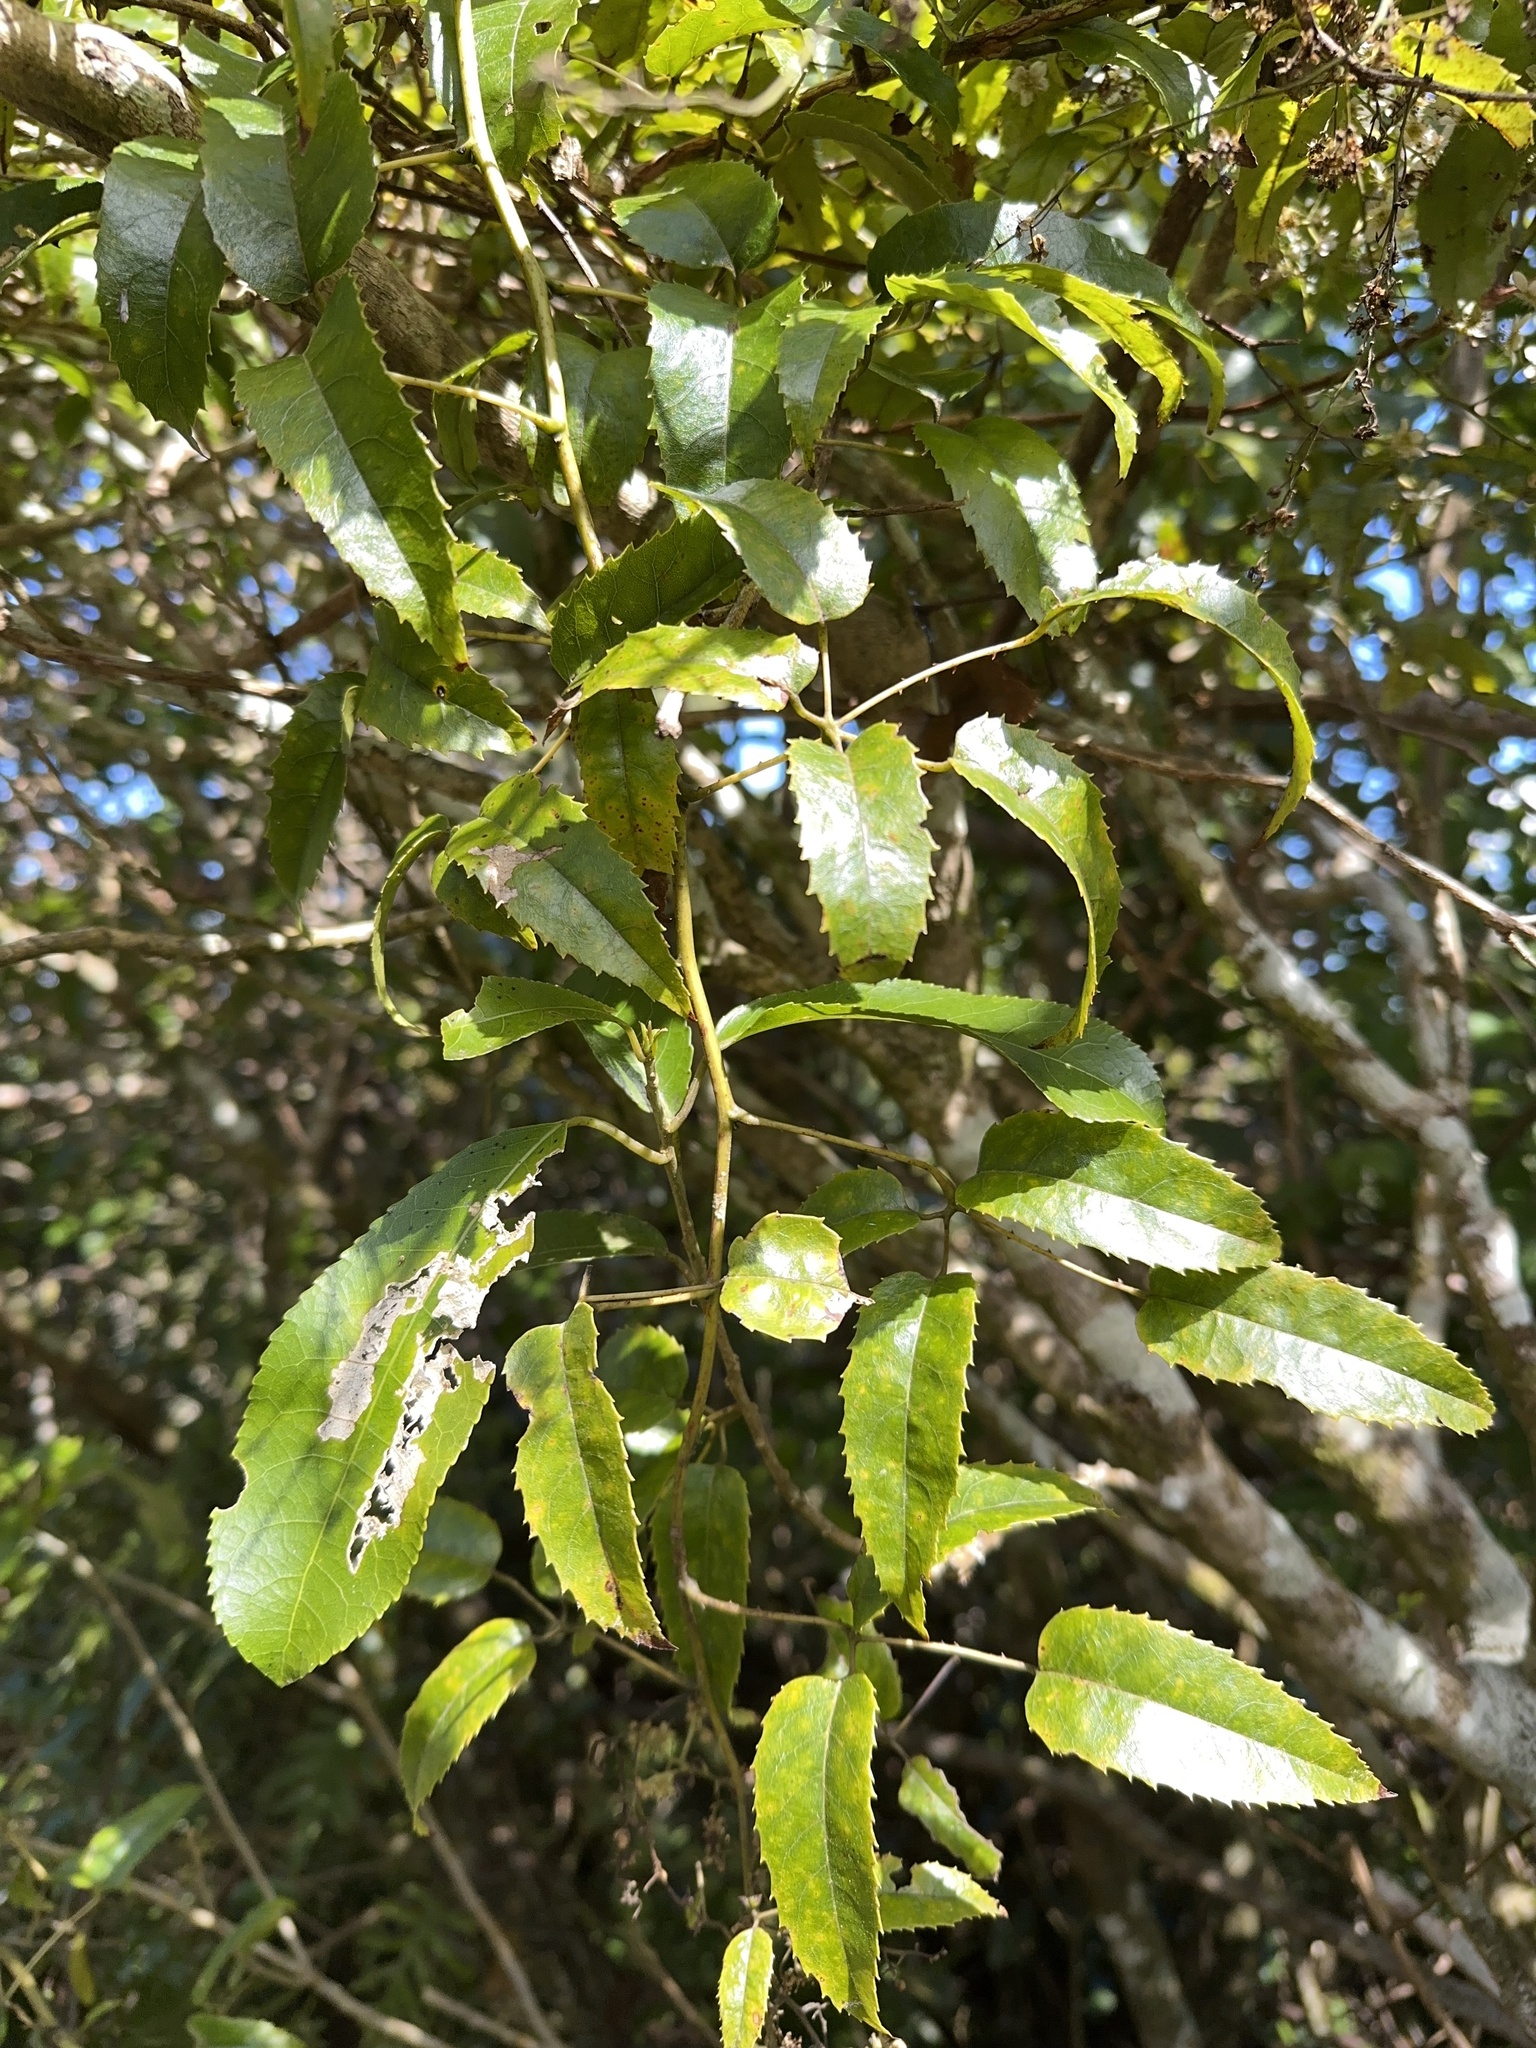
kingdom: Plantae
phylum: Tracheophyta
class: Magnoliopsida
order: Rosales
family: Rosaceae
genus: Rubus
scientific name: Rubus cissoides
